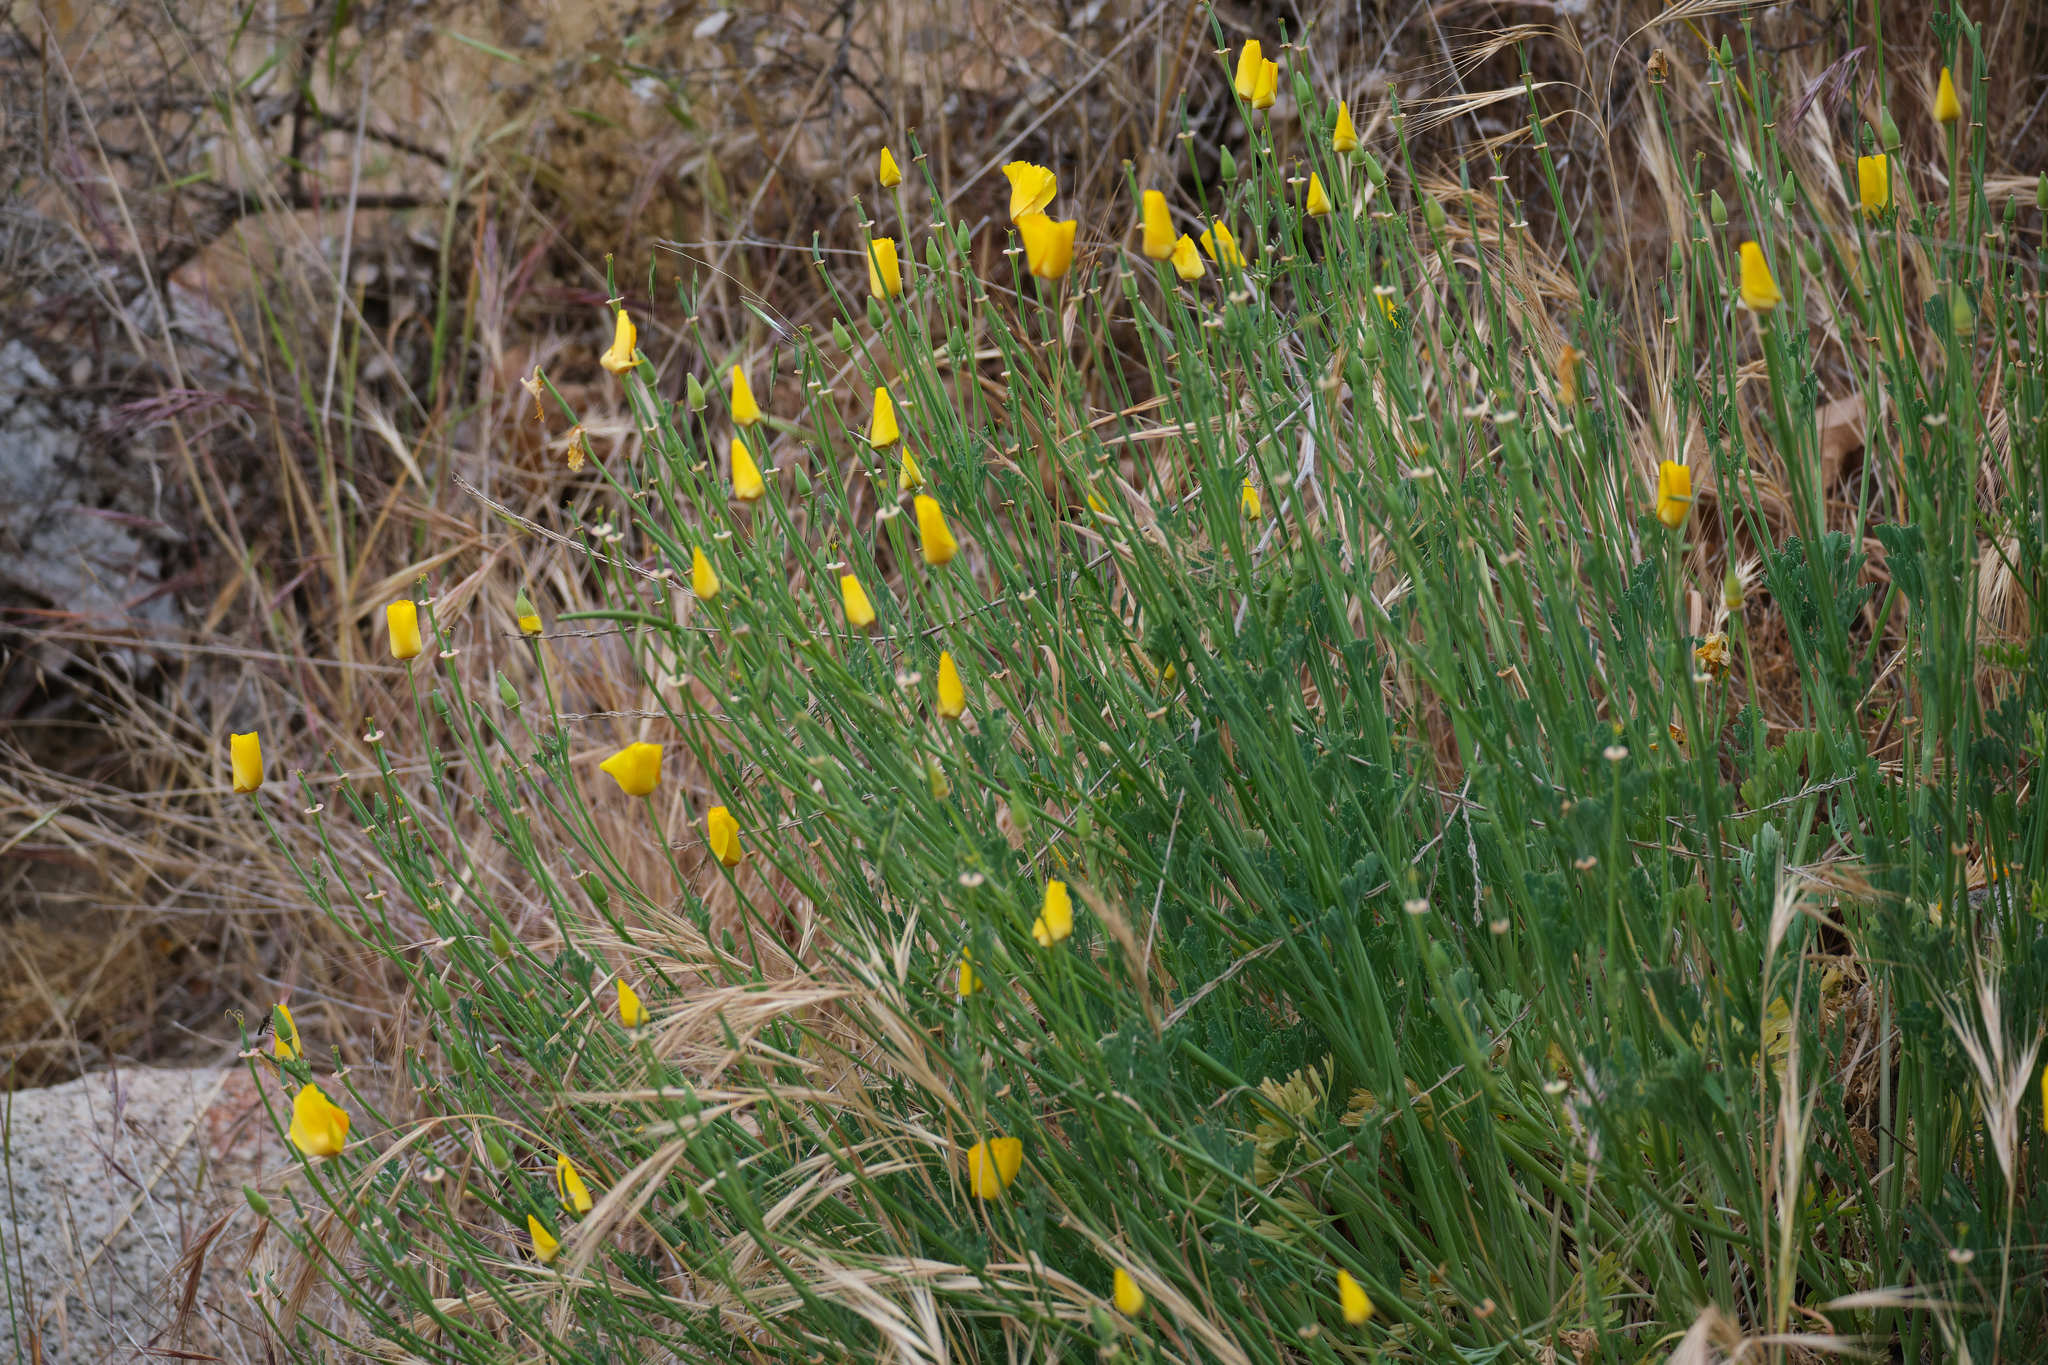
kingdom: Plantae
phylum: Tracheophyta
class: Magnoliopsida
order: Ranunculales
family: Papaveraceae
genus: Eschscholzia
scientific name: Eschscholzia californica
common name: California poppy
